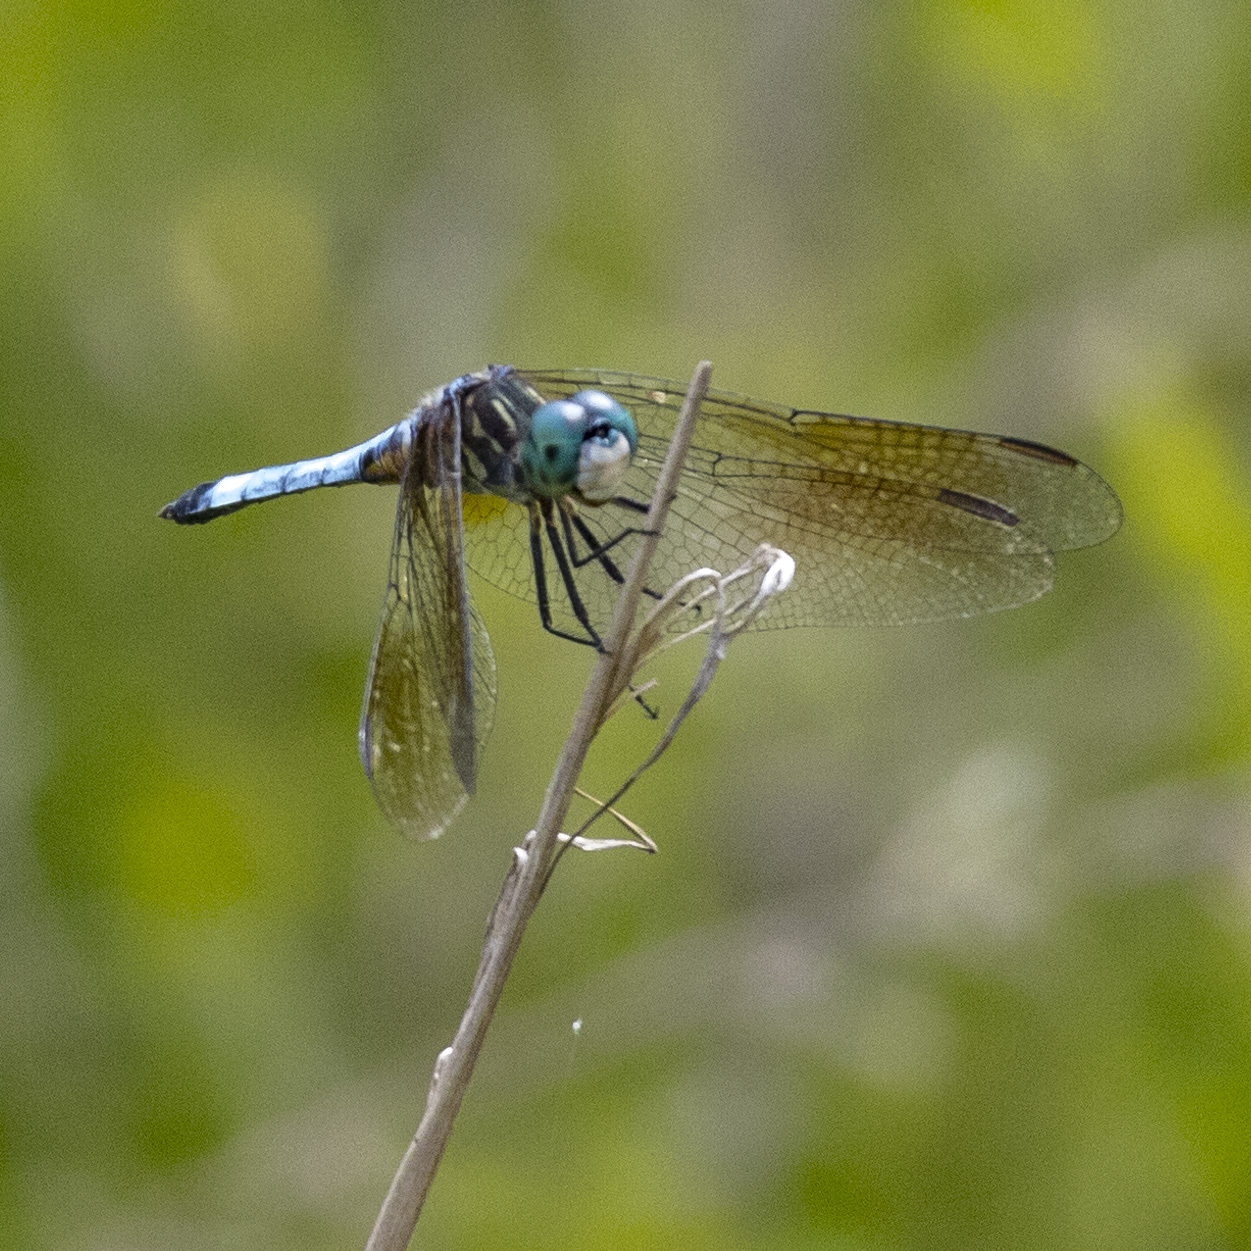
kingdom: Animalia
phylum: Arthropoda
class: Insecta
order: Odonata
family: Libellulidae
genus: Pachydiplax
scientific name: Pachydiplax longipennis
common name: Blue dasher
